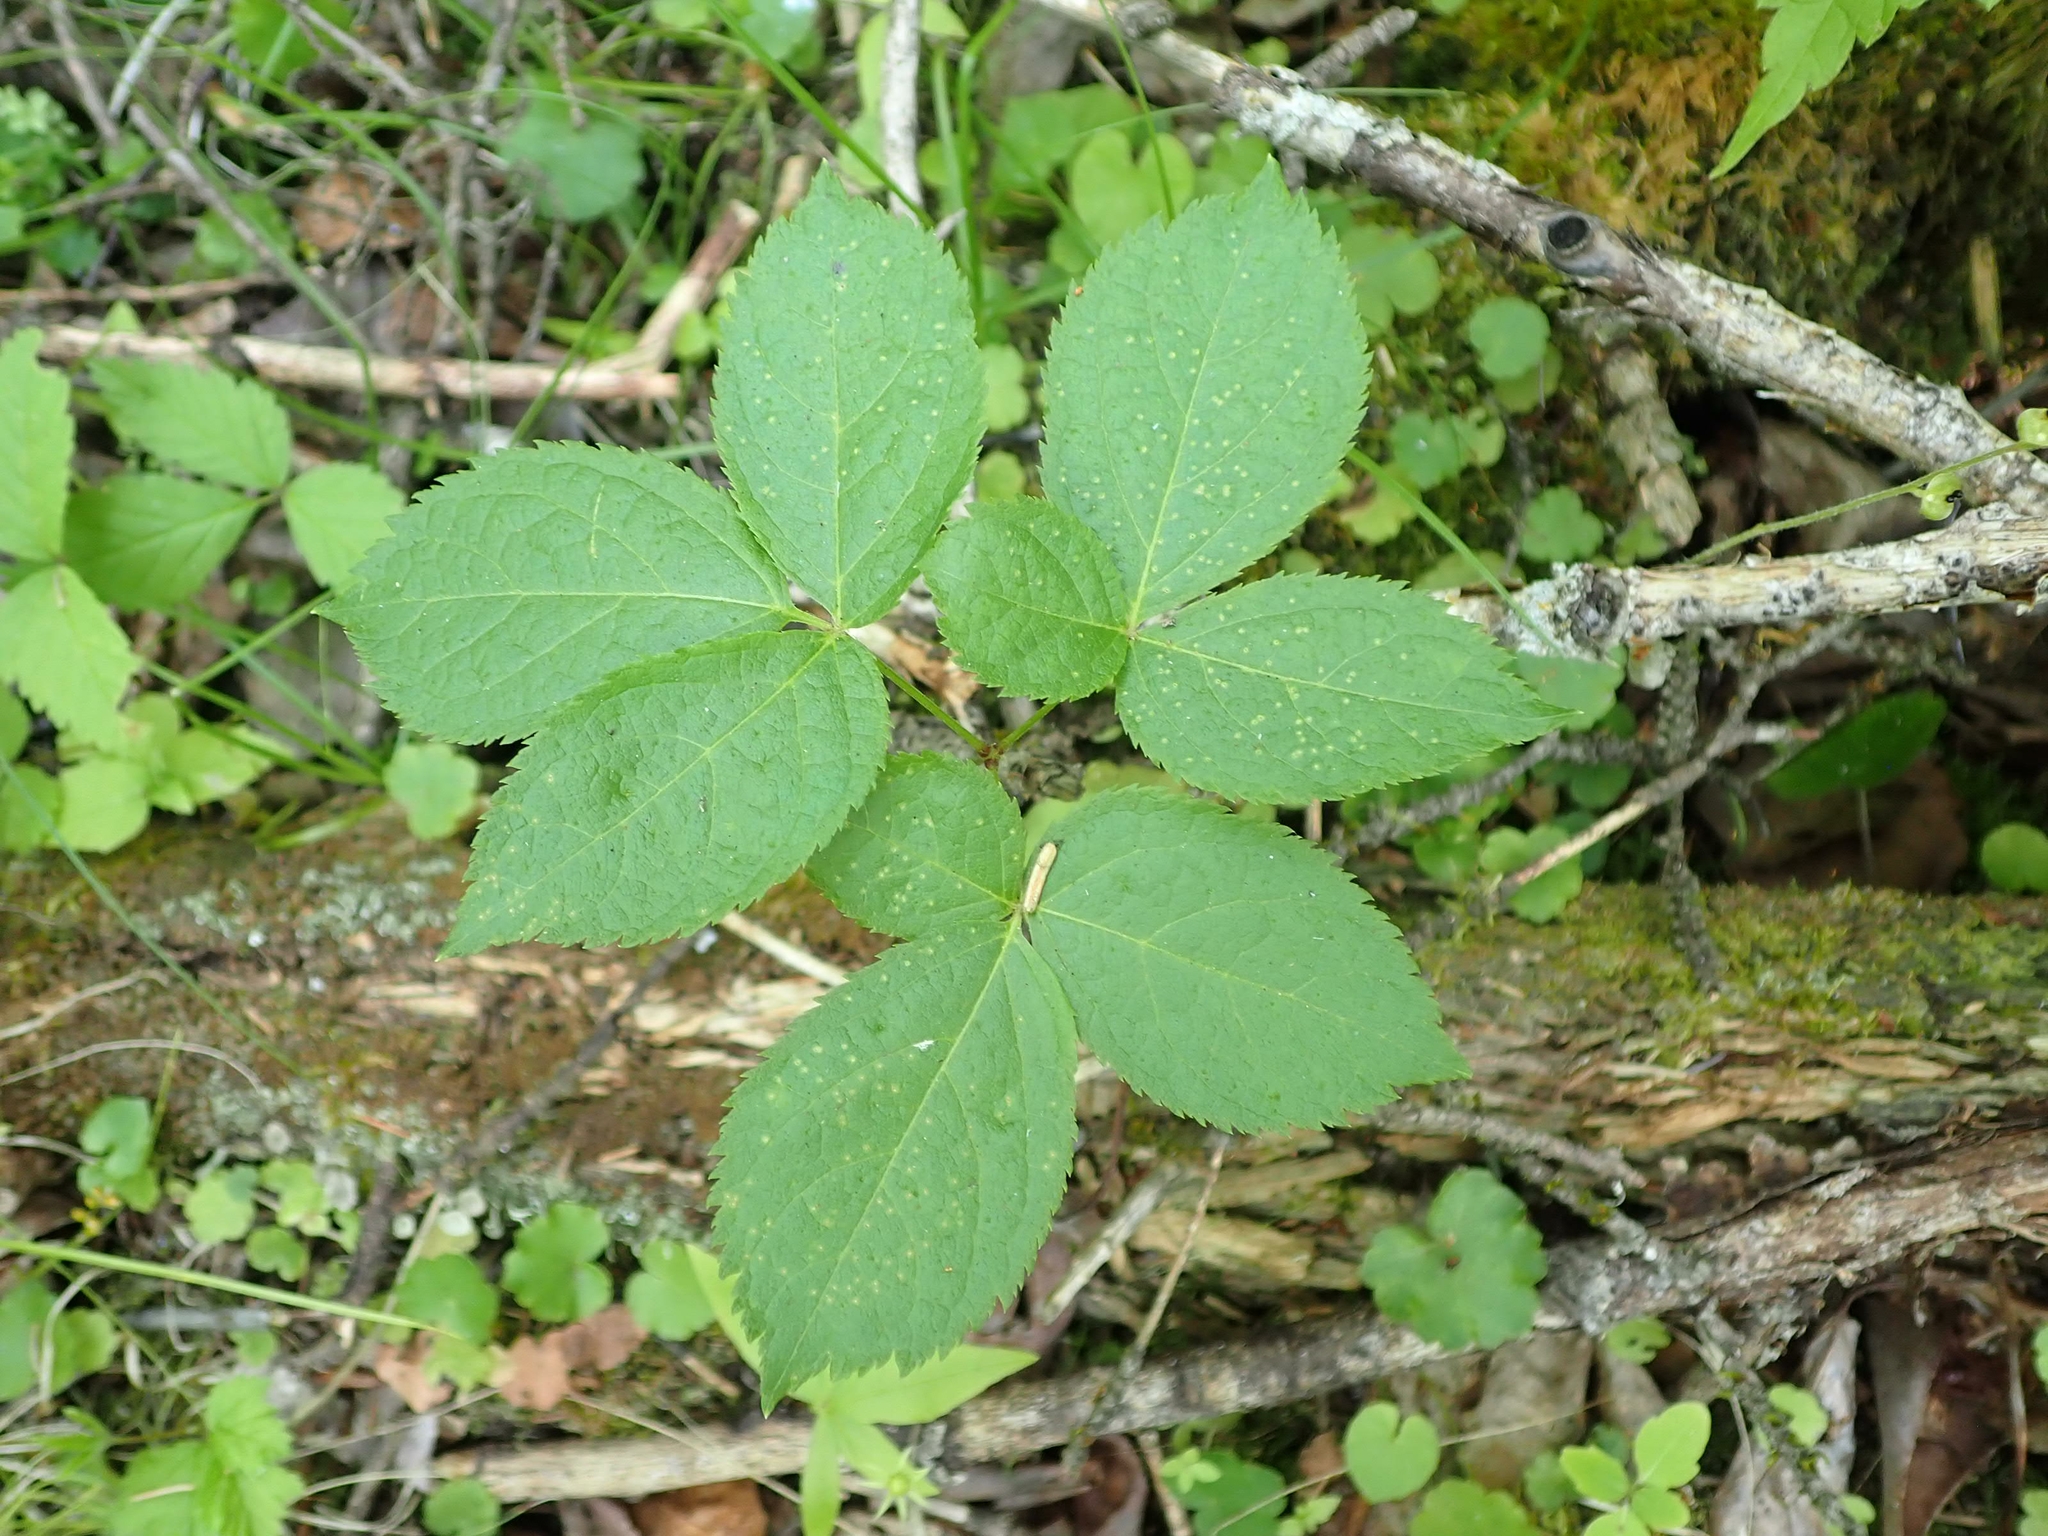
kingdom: Plantae
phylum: Tracheophyta
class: Magnoliopsida
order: Apiales
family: Araliaceae
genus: Aralia
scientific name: Aralia nudicaulis
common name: Wild sarsaparilla
